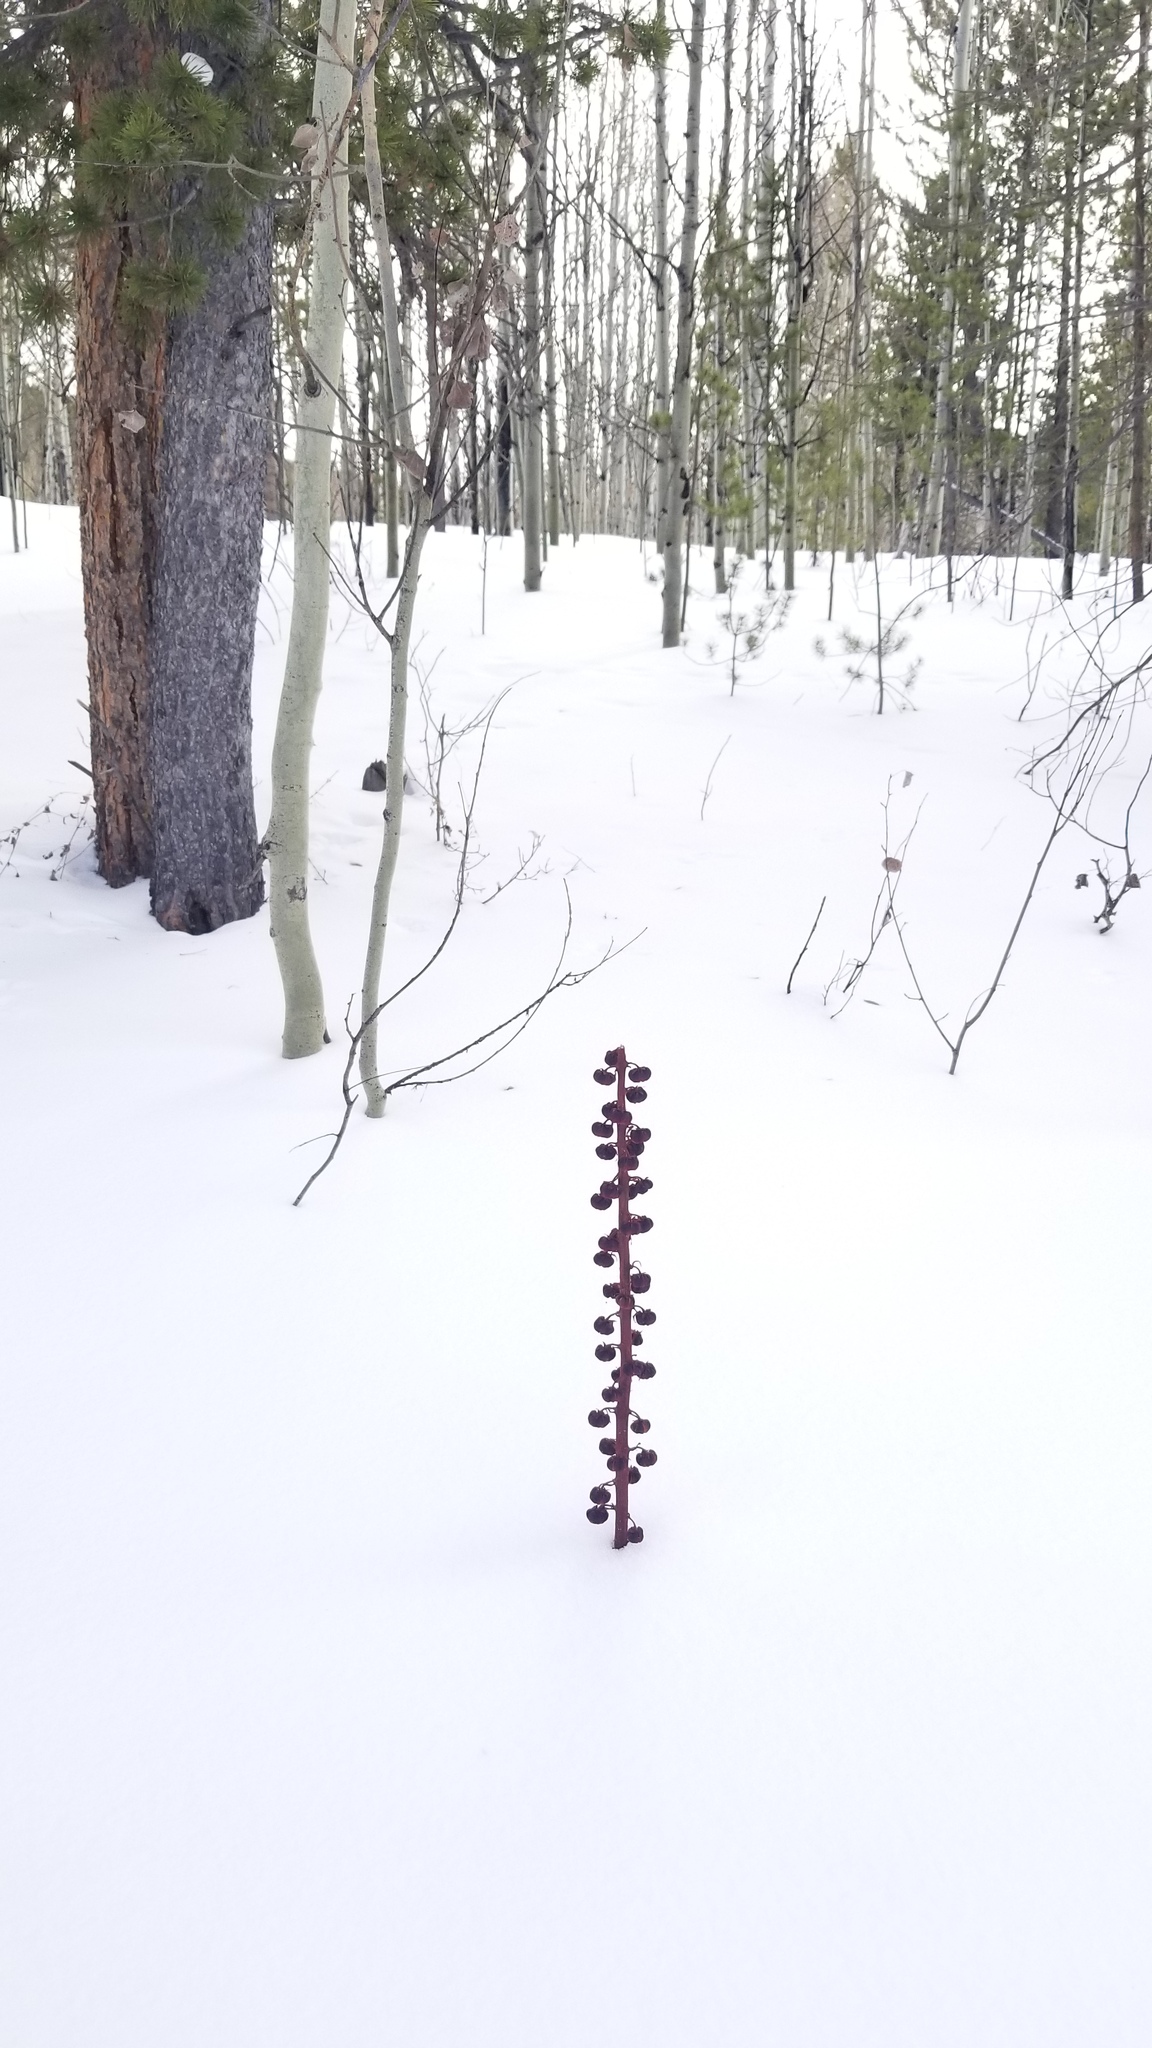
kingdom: Plantae
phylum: Tracheophyta
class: Magnoliopsida
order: Ericales
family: Ericaceae
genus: Pterospora
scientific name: Pterospora andromedea
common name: Giant bird's-nest
